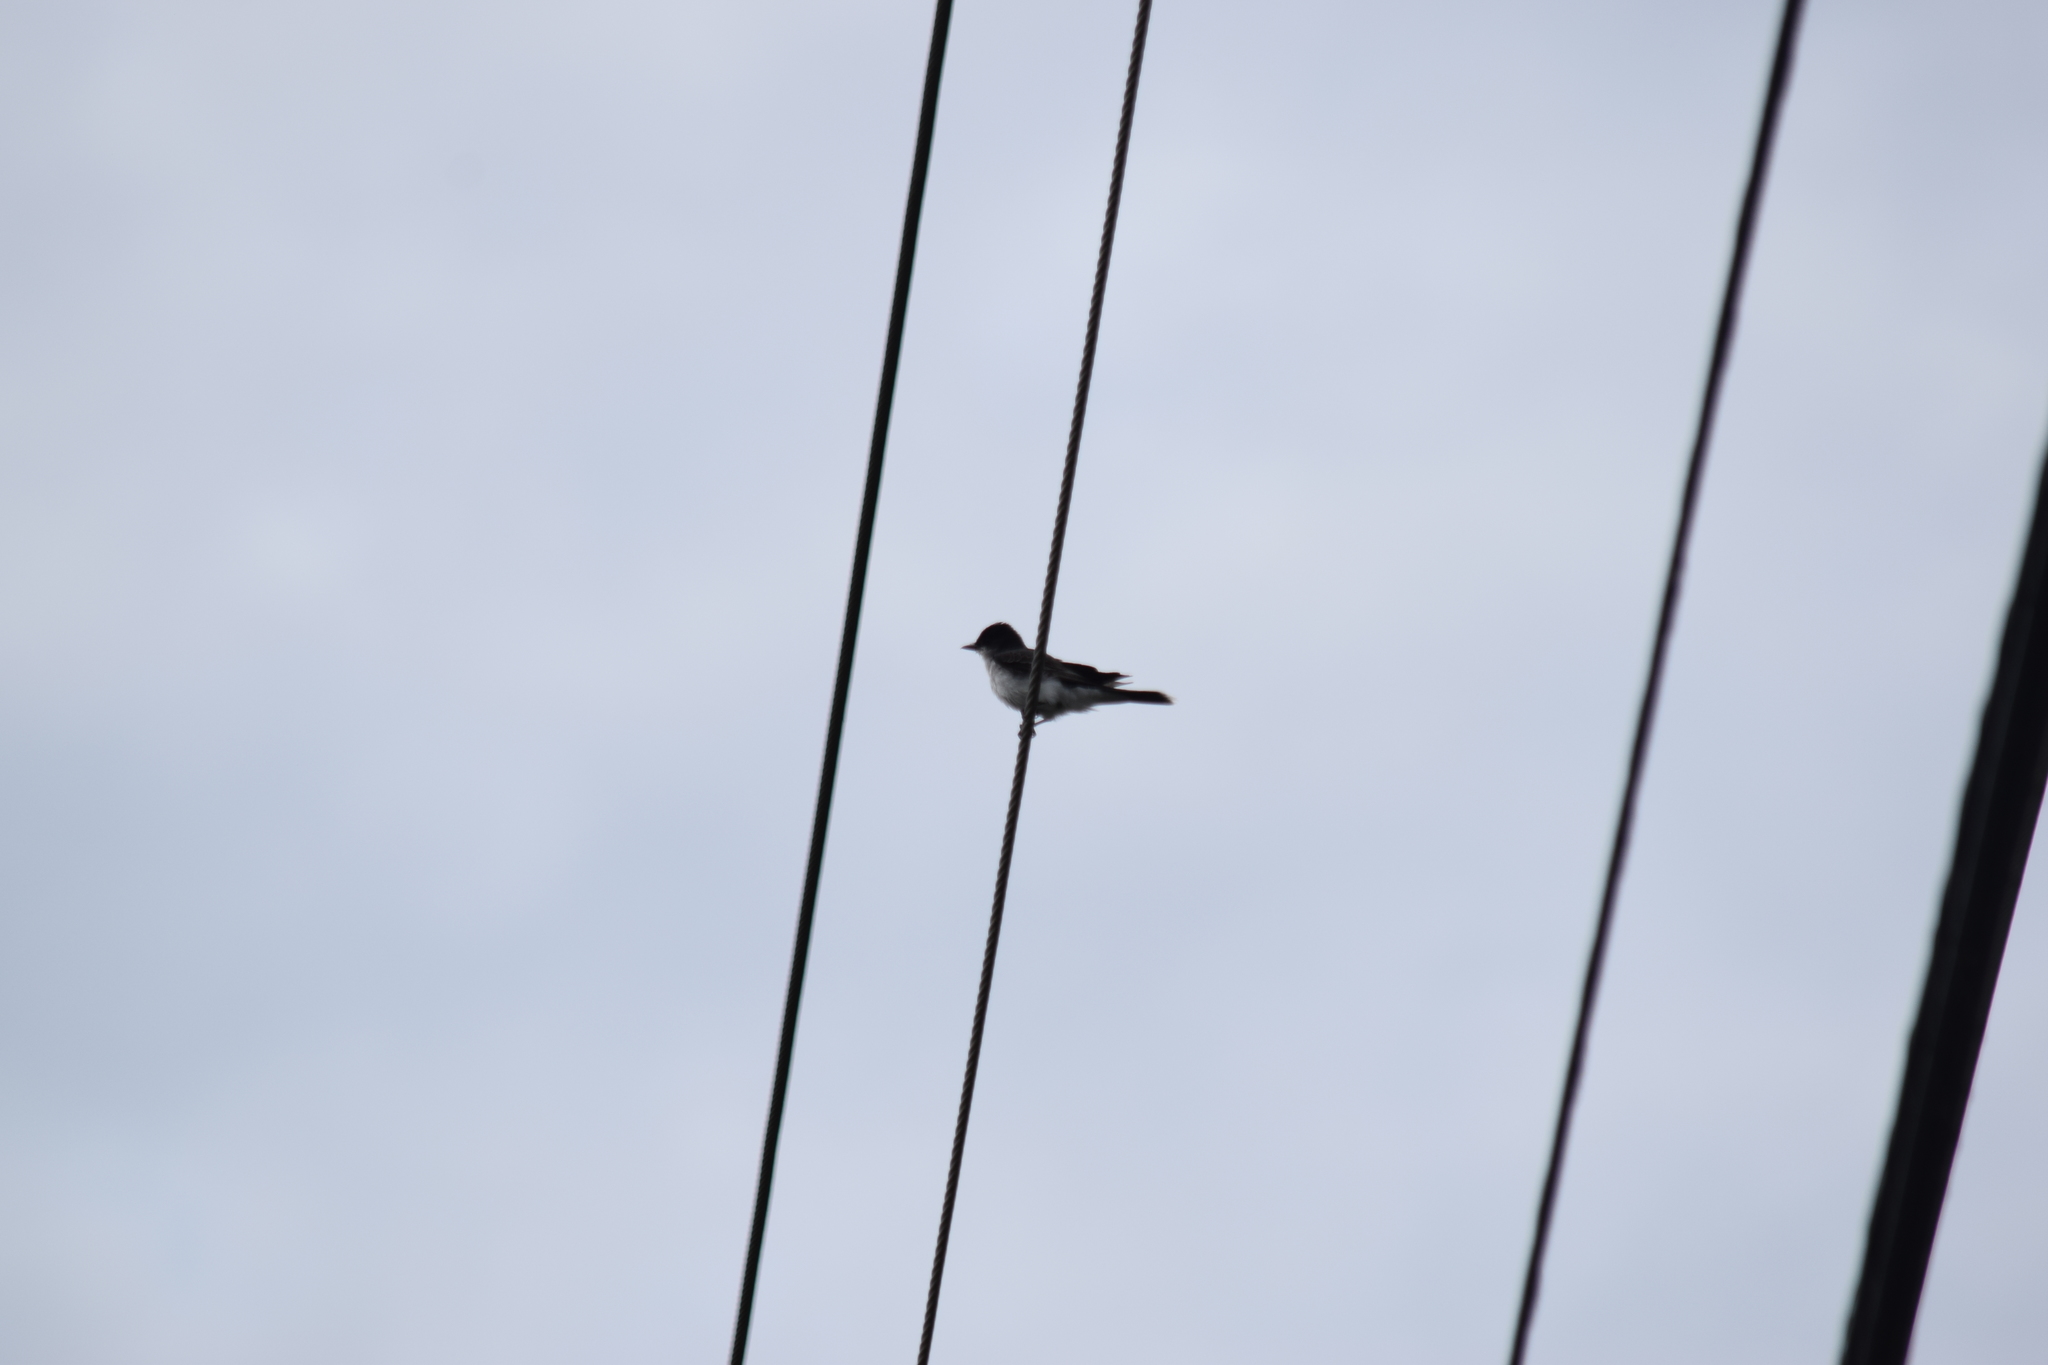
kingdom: Animalia
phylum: Chordata
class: Aves
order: Passeriformes
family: Tyrannidae
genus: Tyrannus
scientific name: Tyrannus tyrannus
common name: Eastern kingbird
